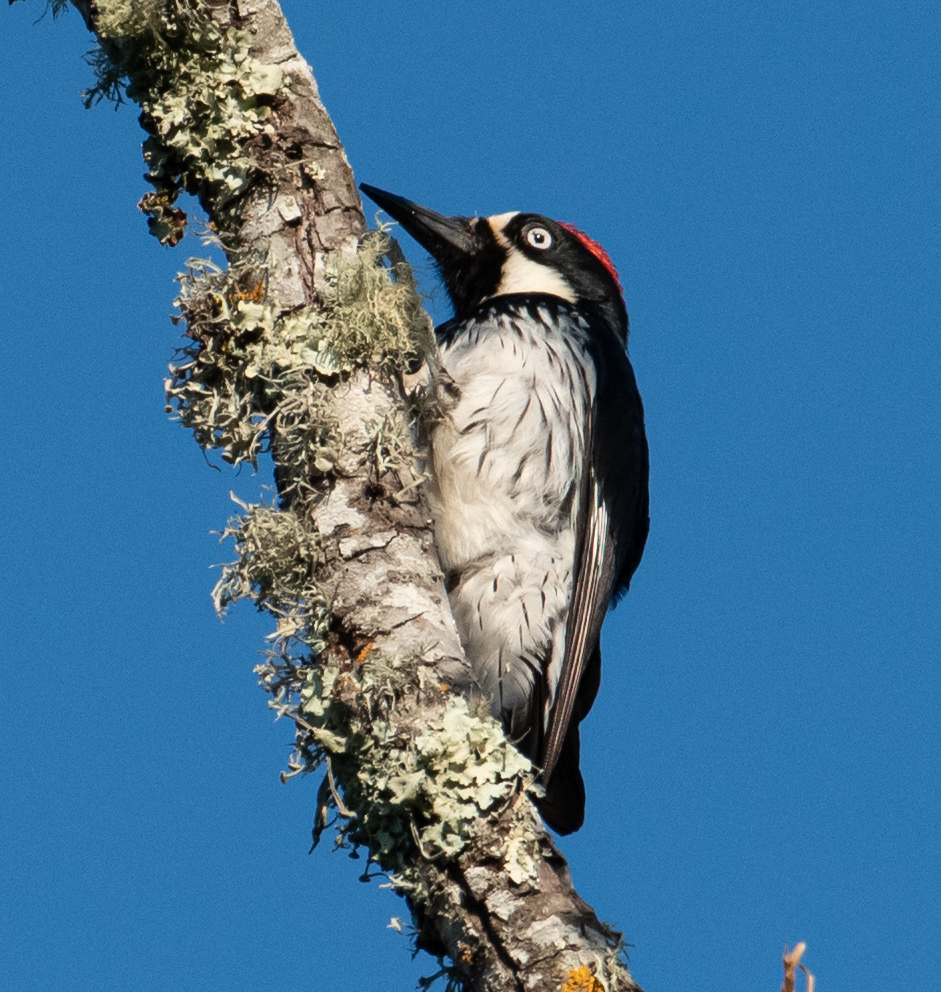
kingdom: Animalia
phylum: Chordata
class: Aves
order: Piciformes
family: Picidae
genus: Melanerpes
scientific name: Melanerpes formicivorus
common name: Acorn woodpecker
